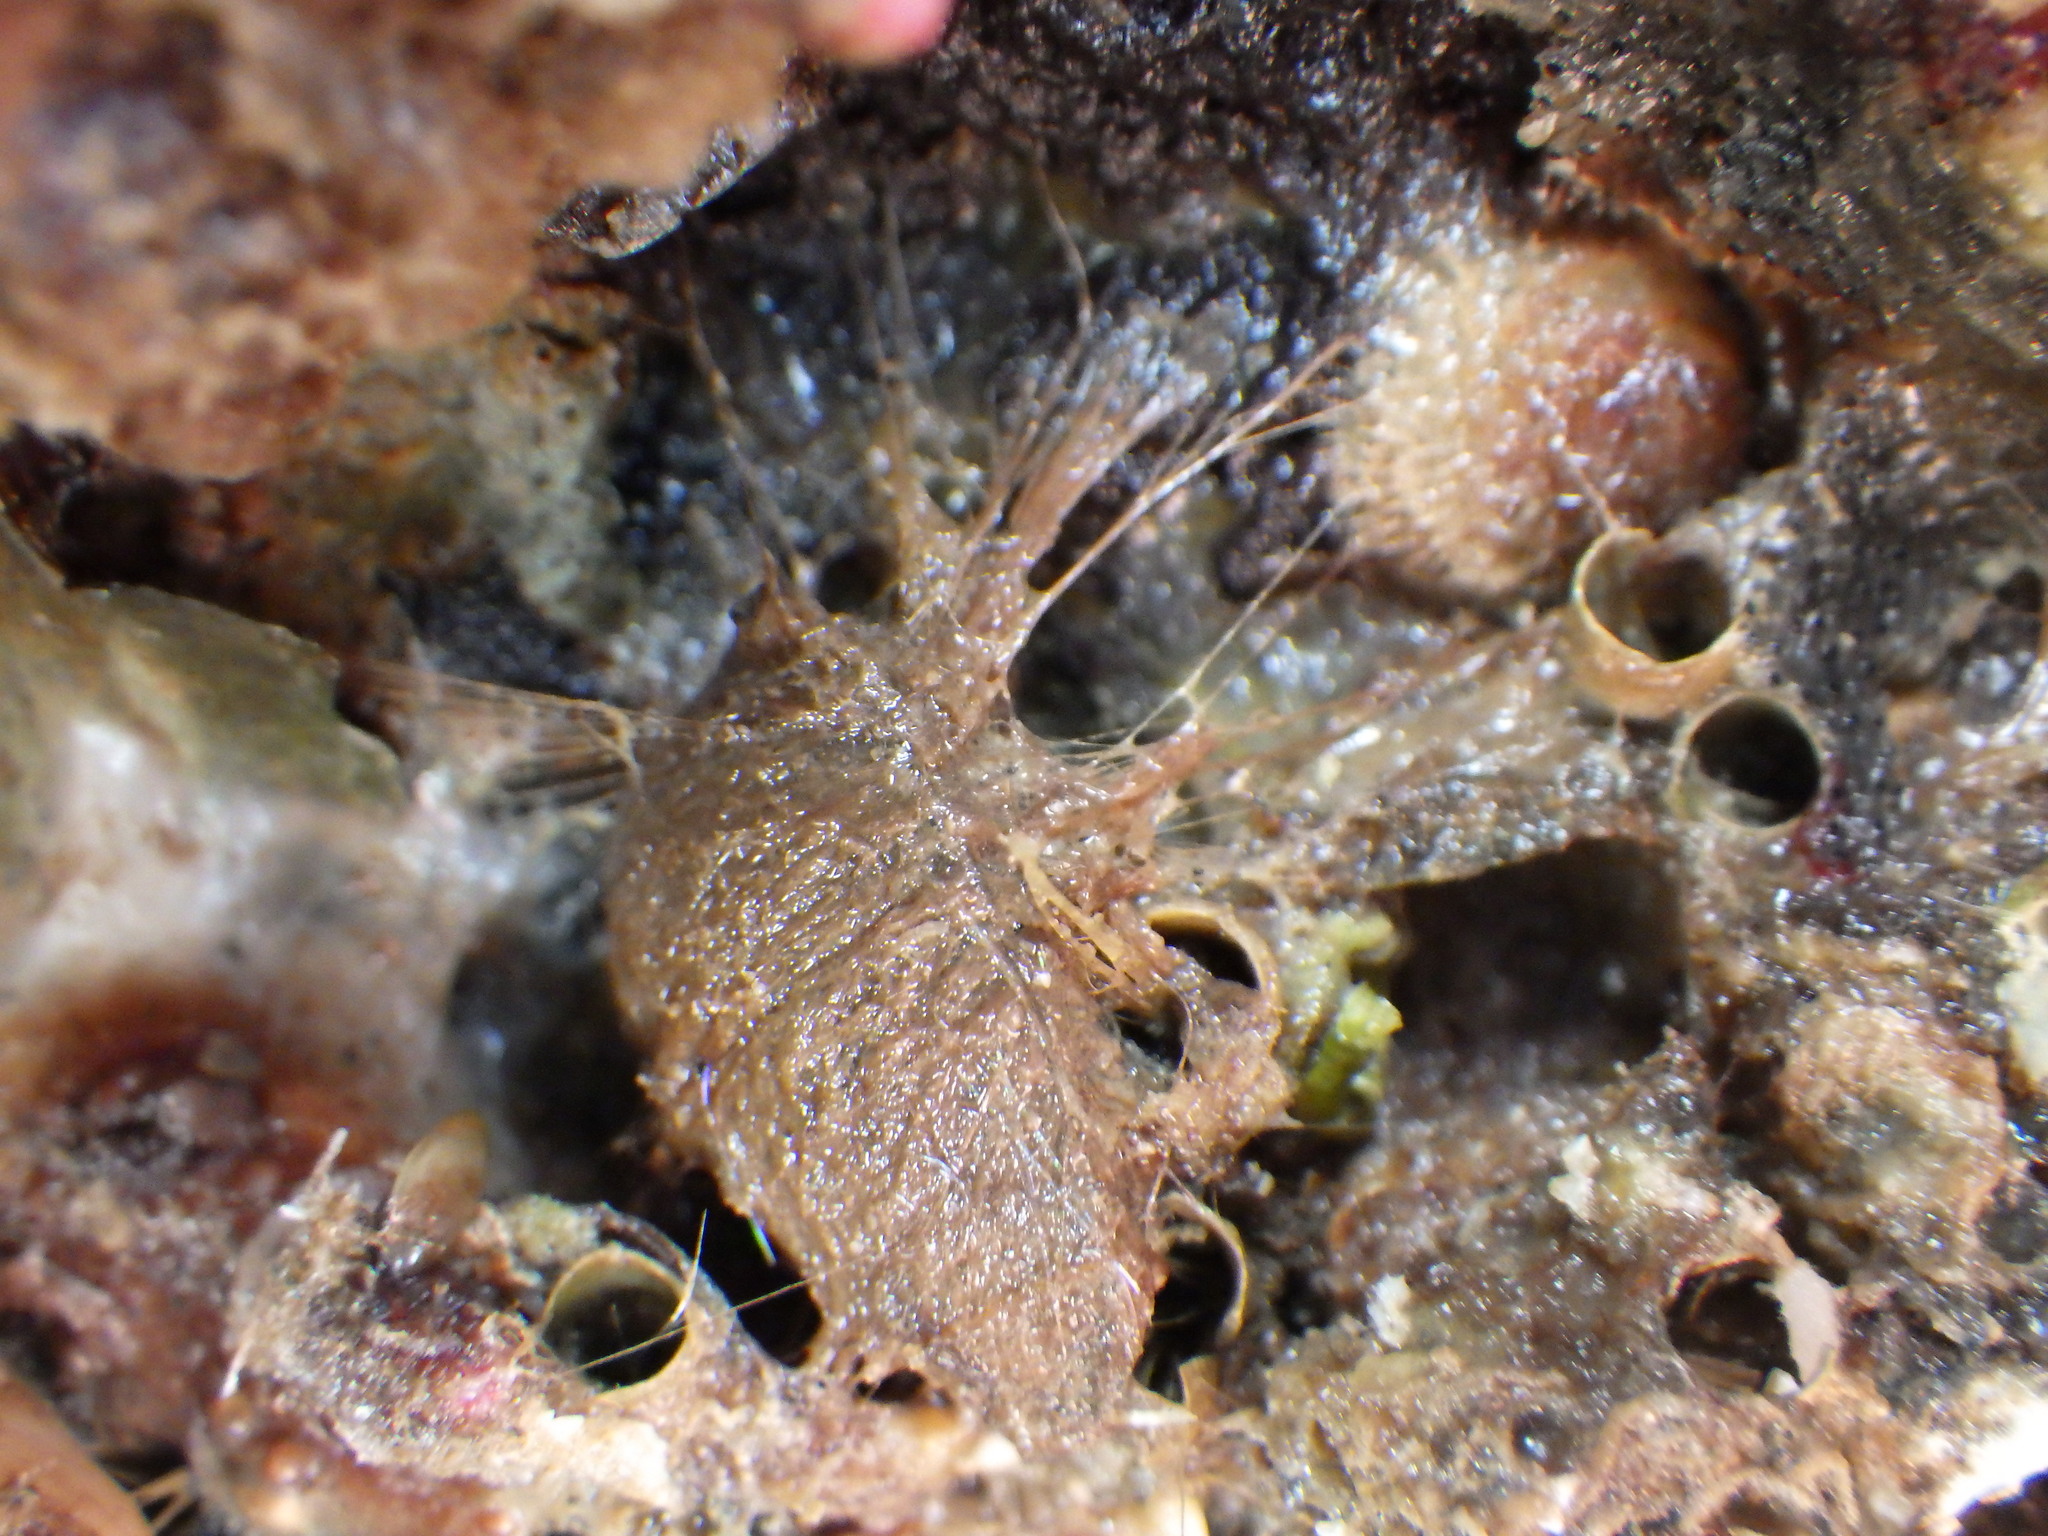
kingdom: Animalia
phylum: Mollusca
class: Bivalvia
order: Mytilida
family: Mytilidae
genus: Musculus
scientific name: Musculus impactus
